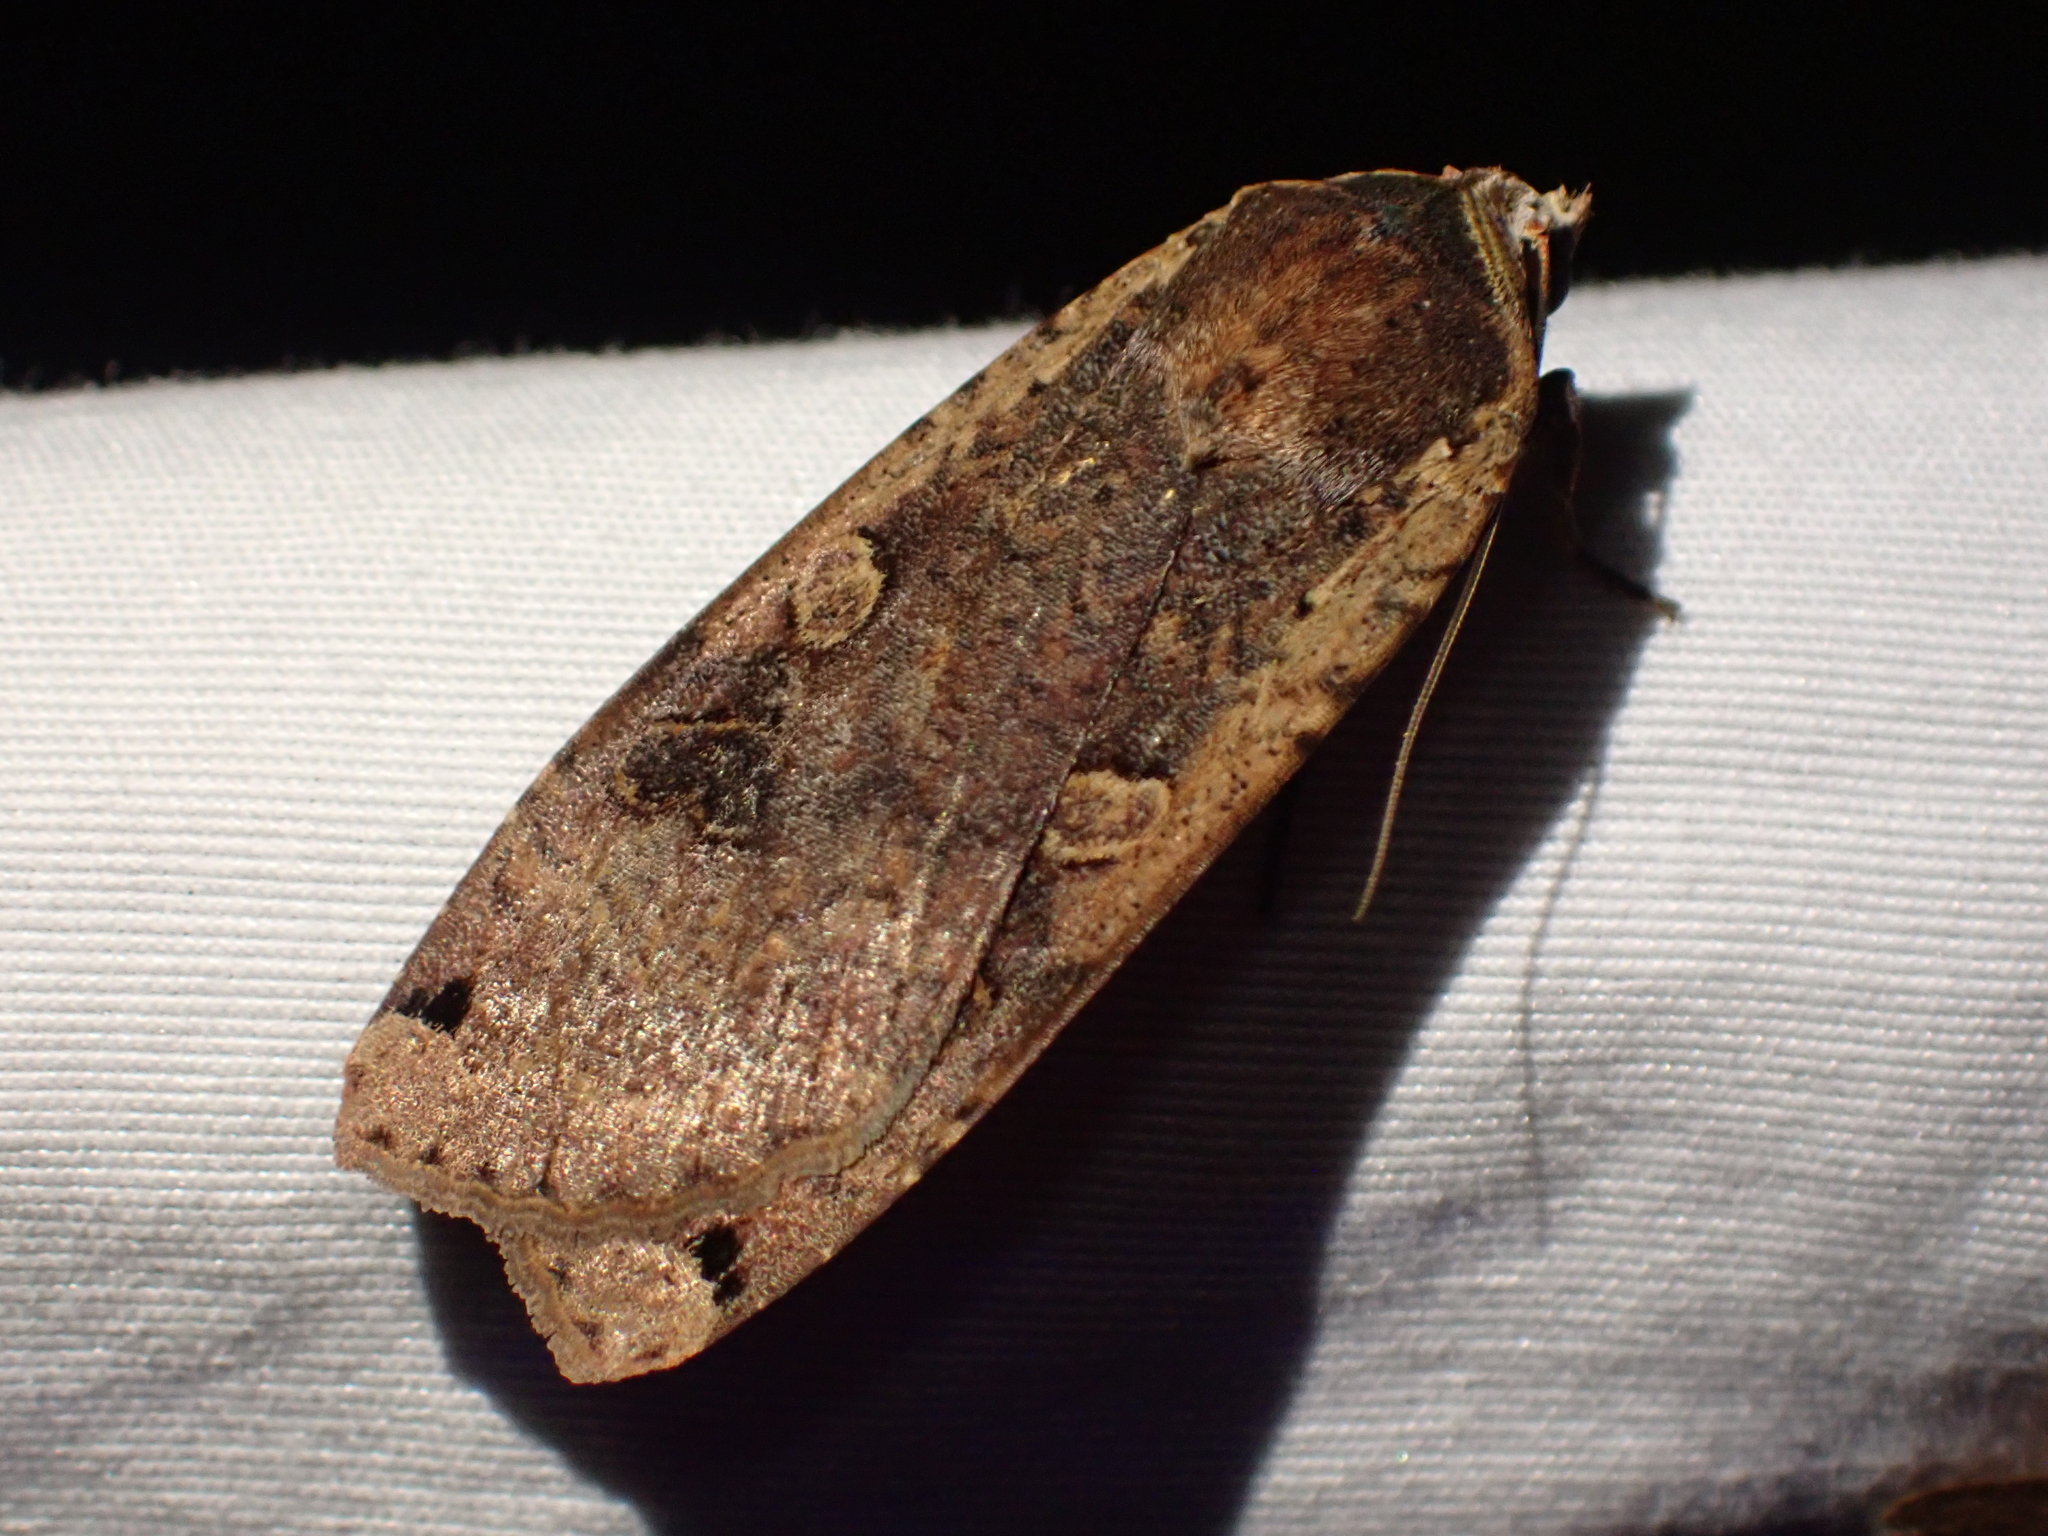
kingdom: Animalia
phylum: Arthropoda
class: Insecta
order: Lepidoptera
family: Noctuidae
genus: Noctua
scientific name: Noctua pronuba
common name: Large yellow underwing
